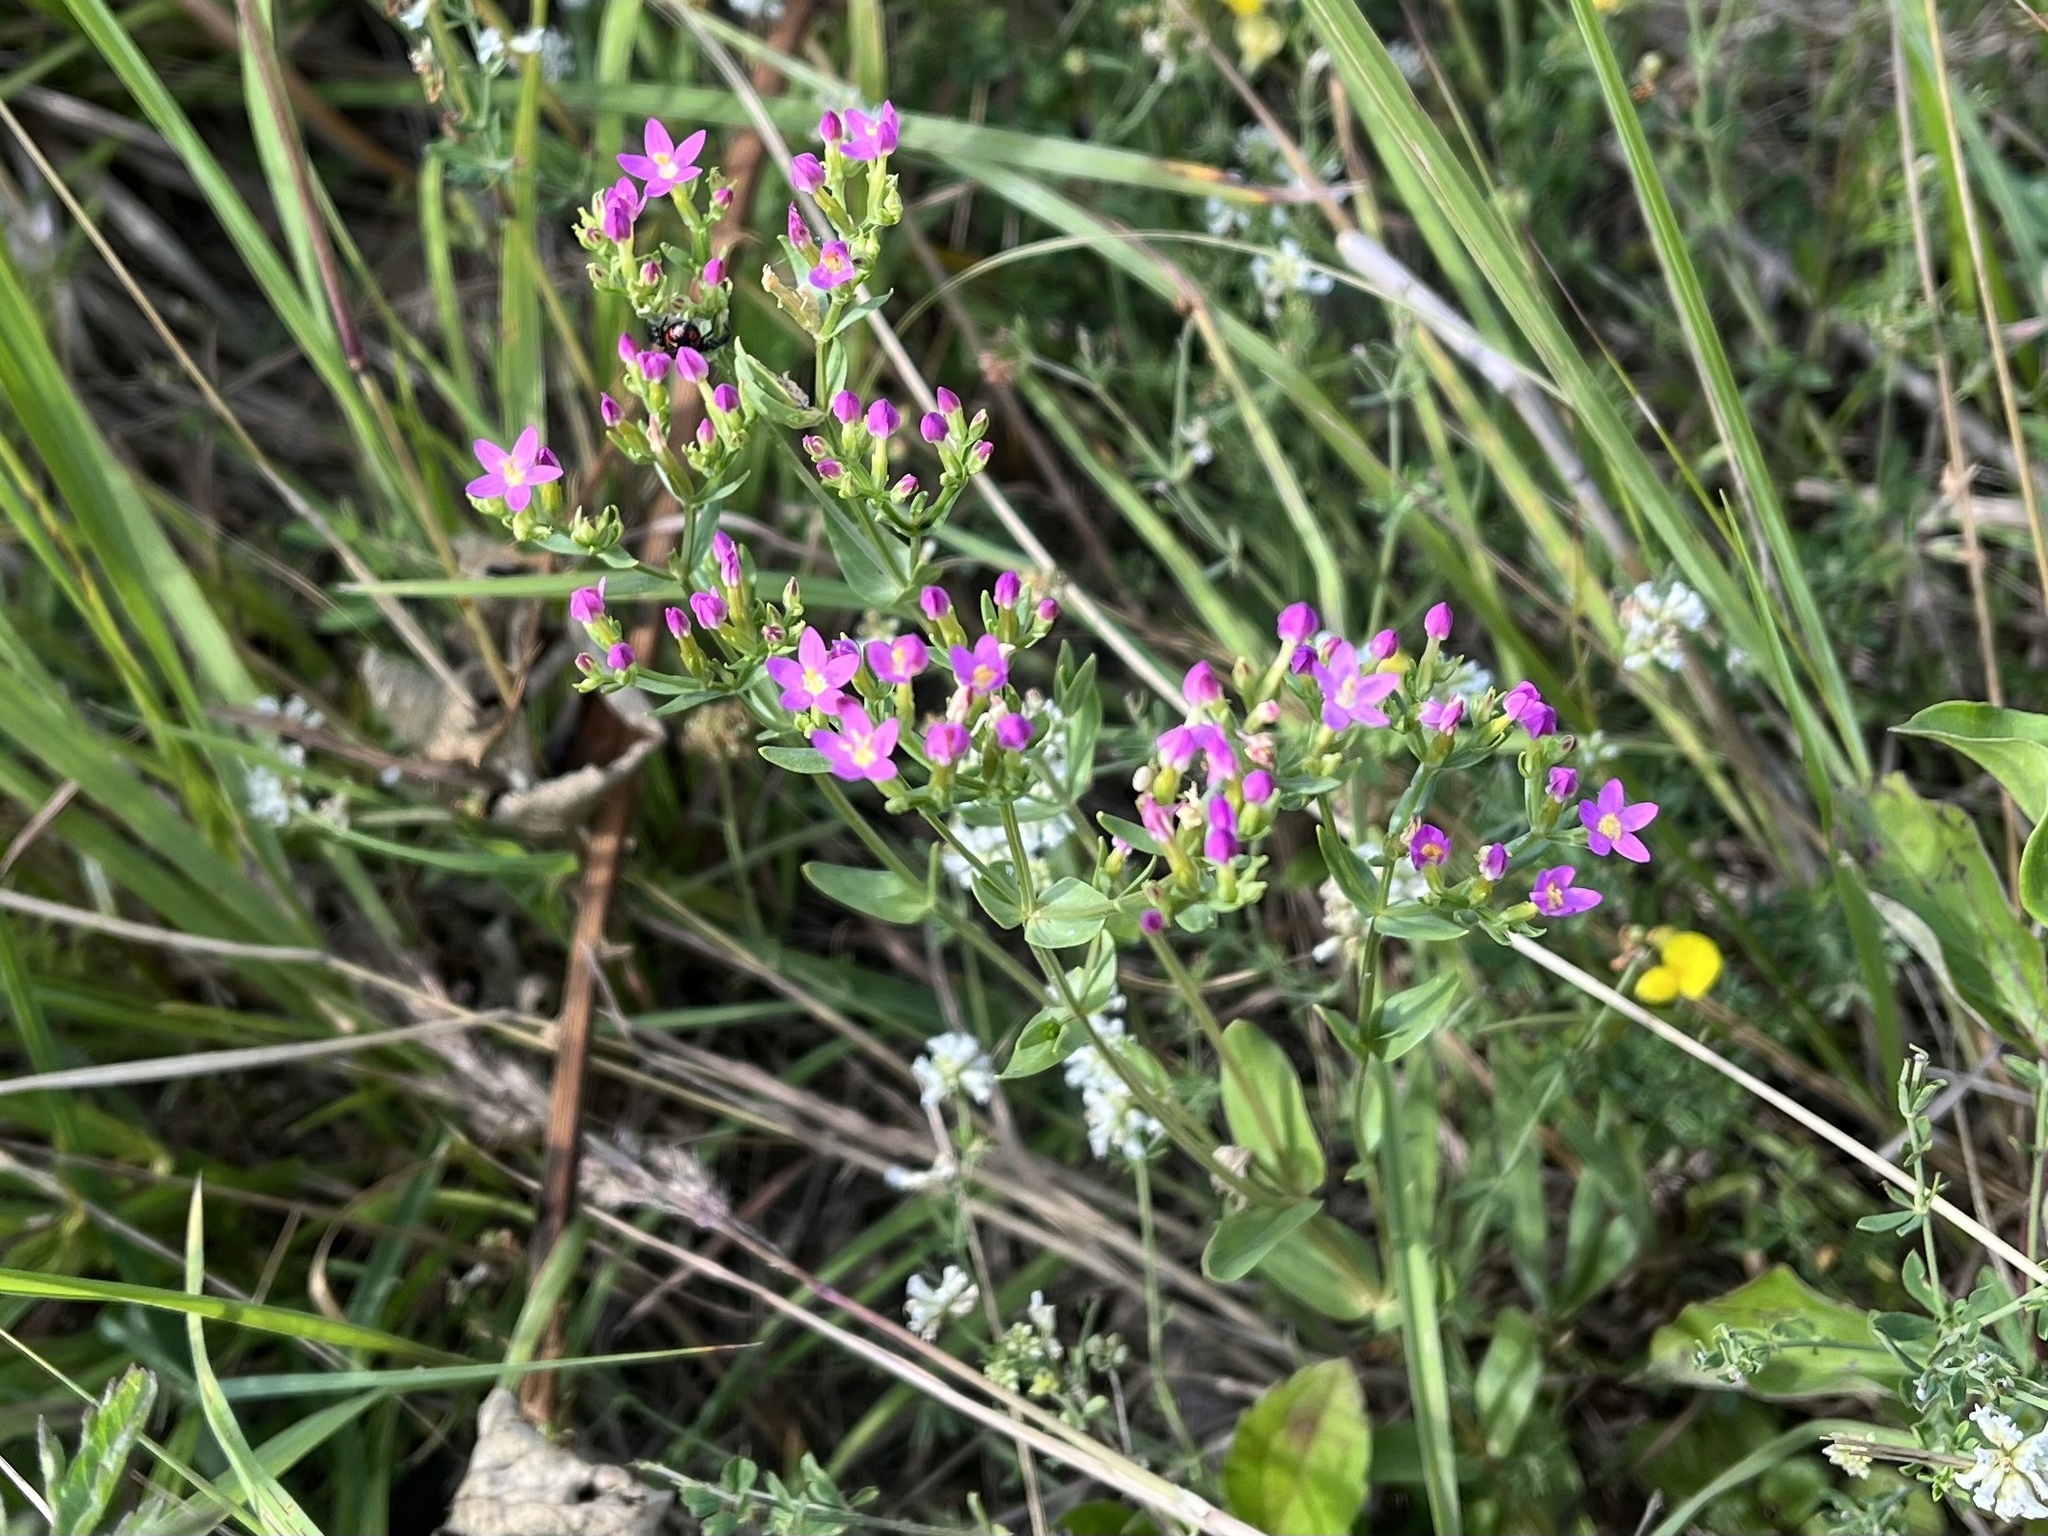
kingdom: Plantae
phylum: Tracheophyta
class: Magnoliopsida
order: Gentianales
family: Gentianaceae
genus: Centaurium
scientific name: Centaurium erythraea
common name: Common centaury
